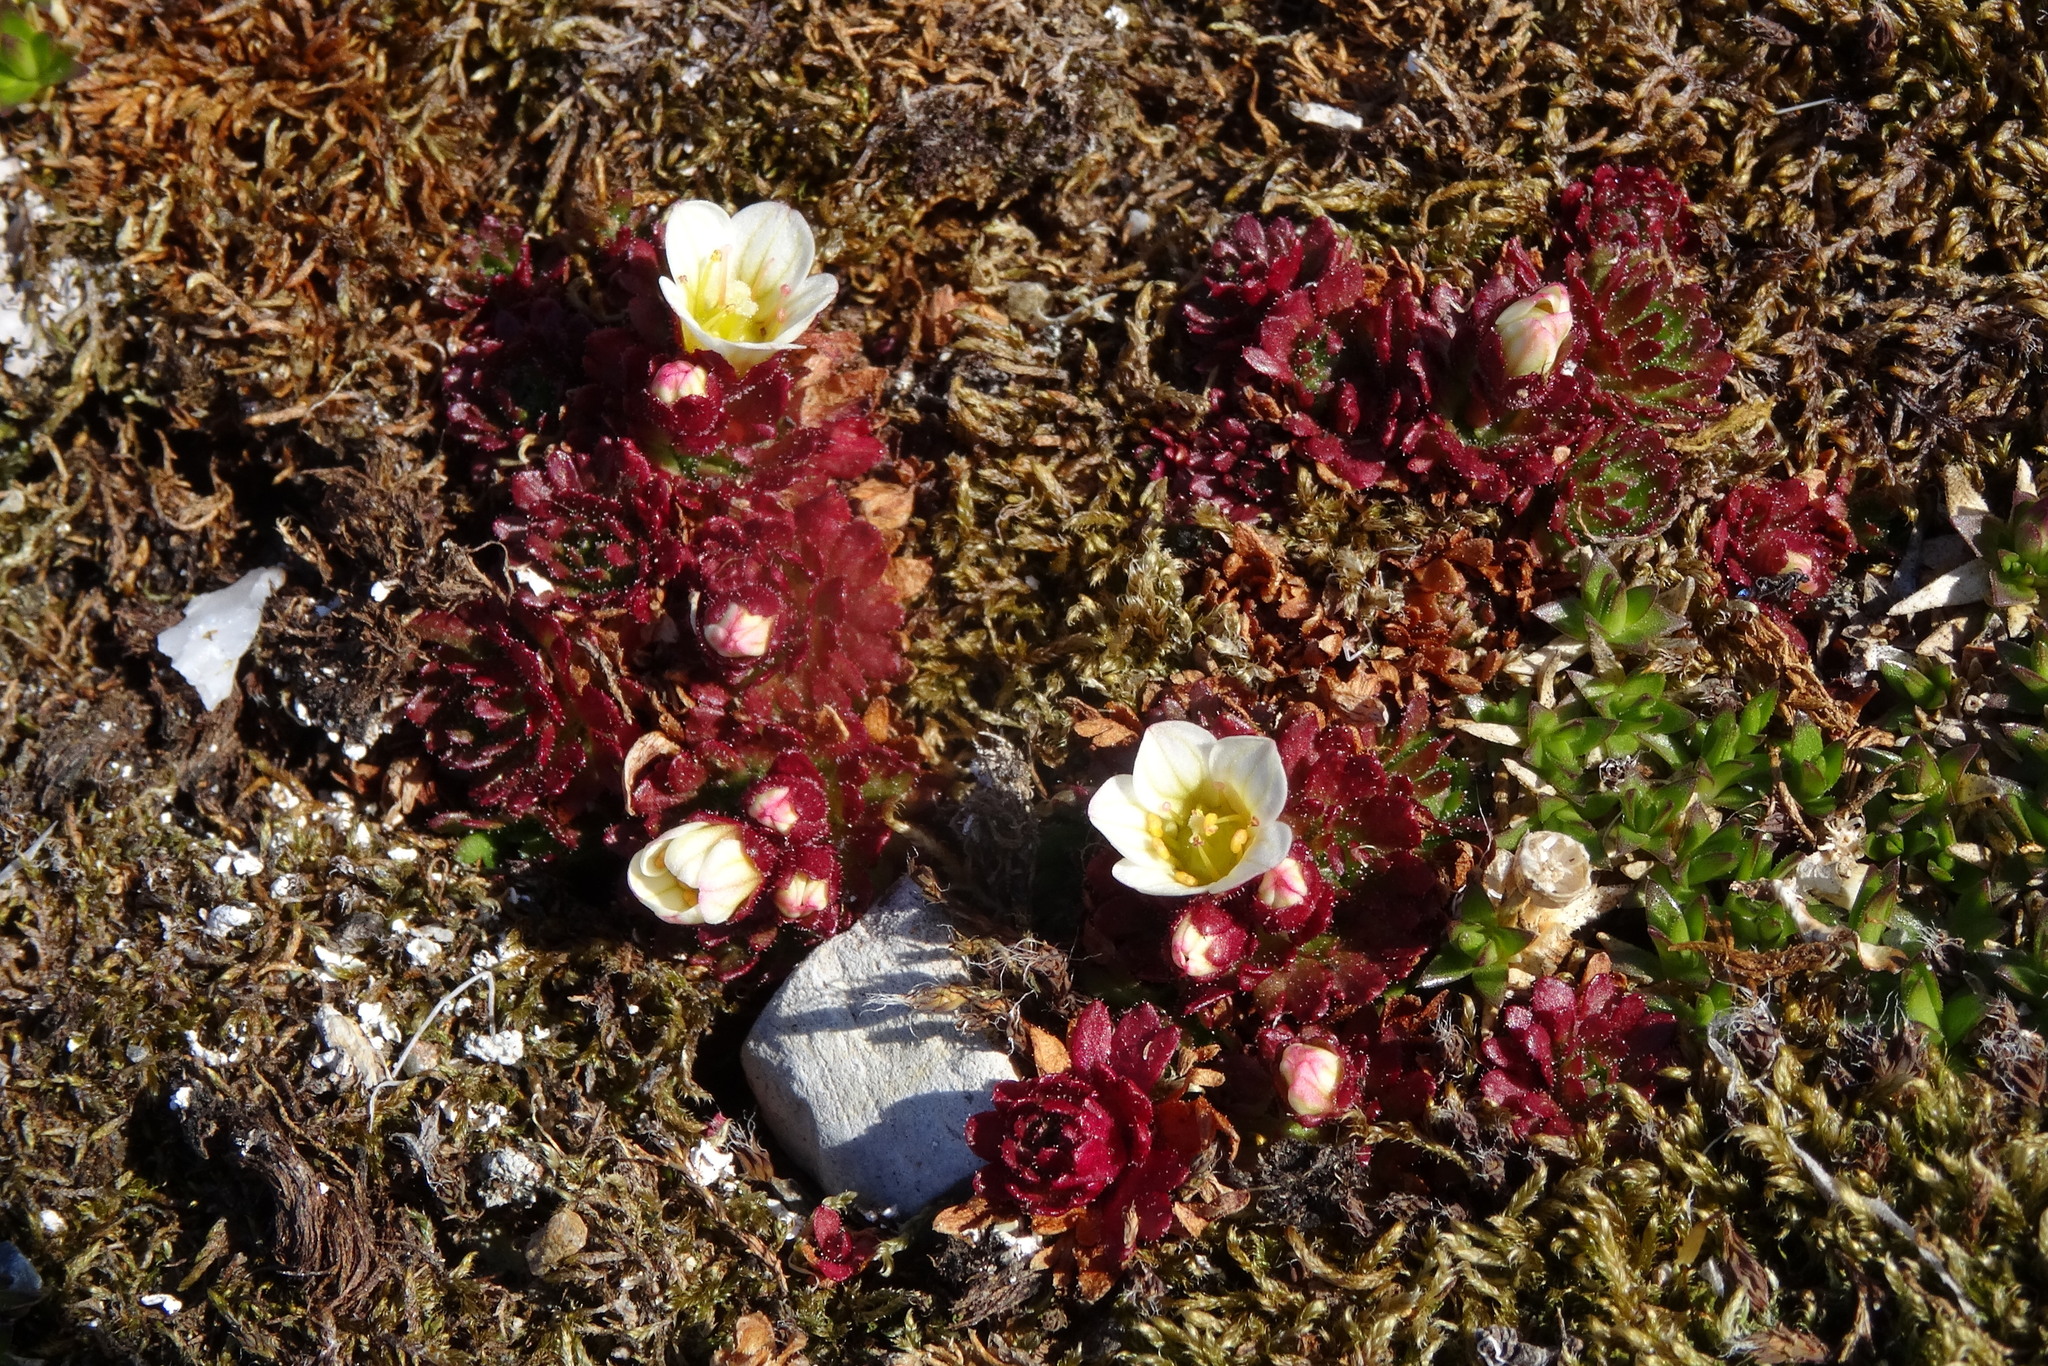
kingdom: Plantae
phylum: Tracheophyta
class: Magnoliopsida
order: Saxifragales
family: Saxifragaceae
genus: Saxifraga
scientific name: Saxifraga cespitosa
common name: Tufted saxifrage
